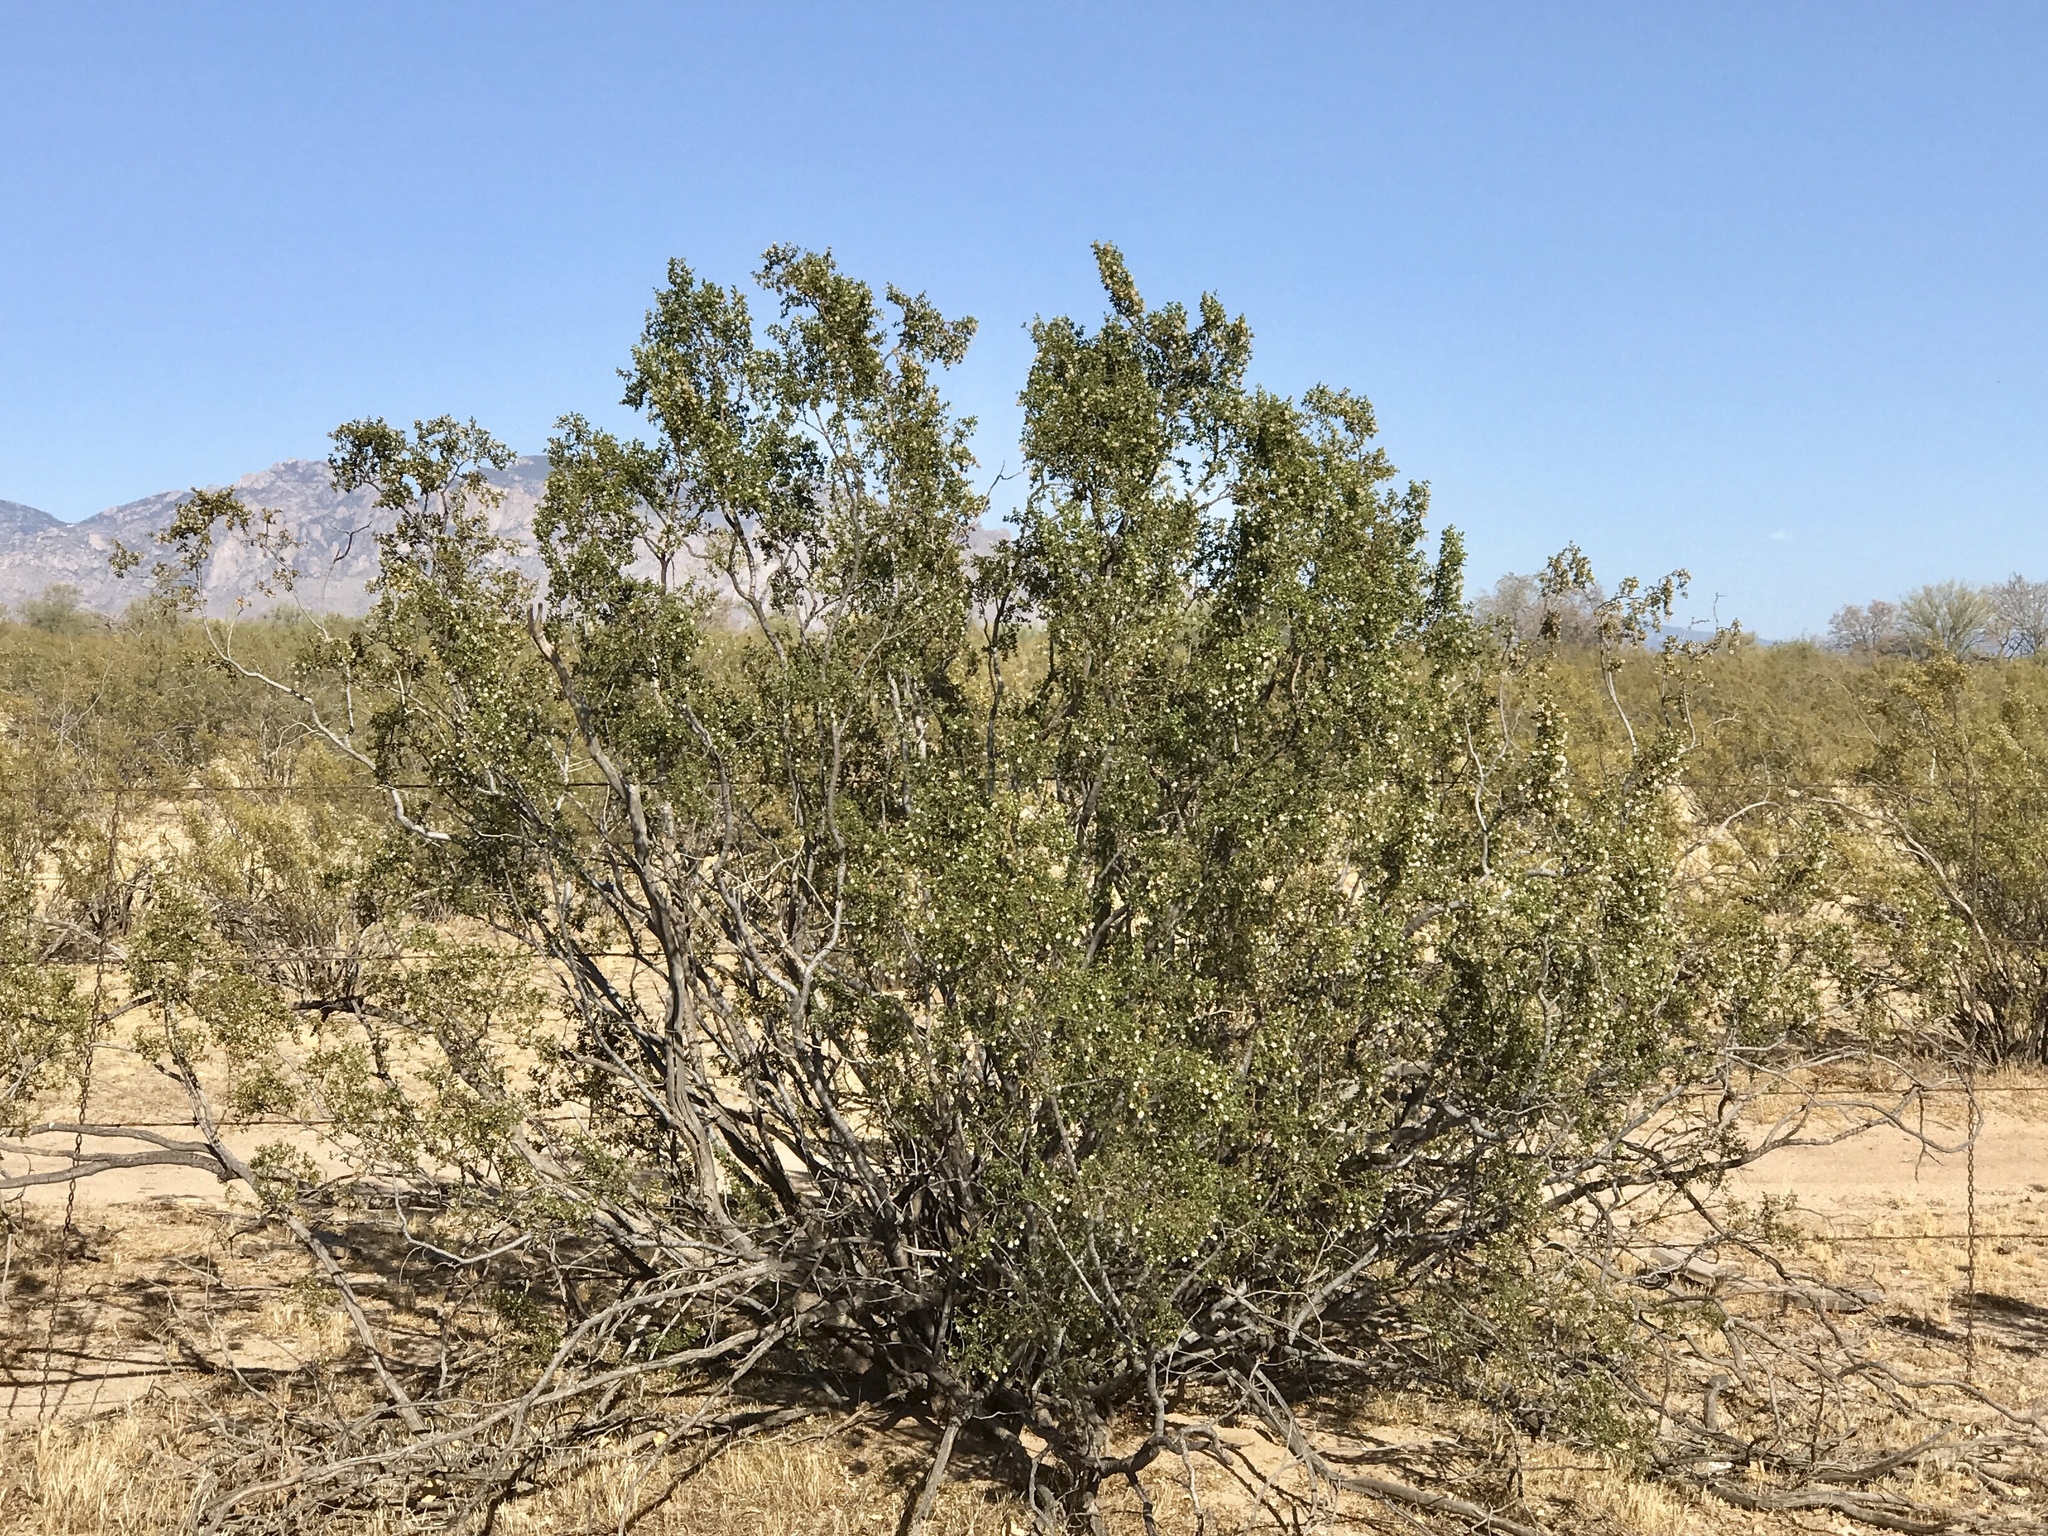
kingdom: Plantae
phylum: Tracheophyta
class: Magnoliopsida
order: Zygophyllales
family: Zygophyllaceae
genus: Larrea
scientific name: Larrea tridentata
